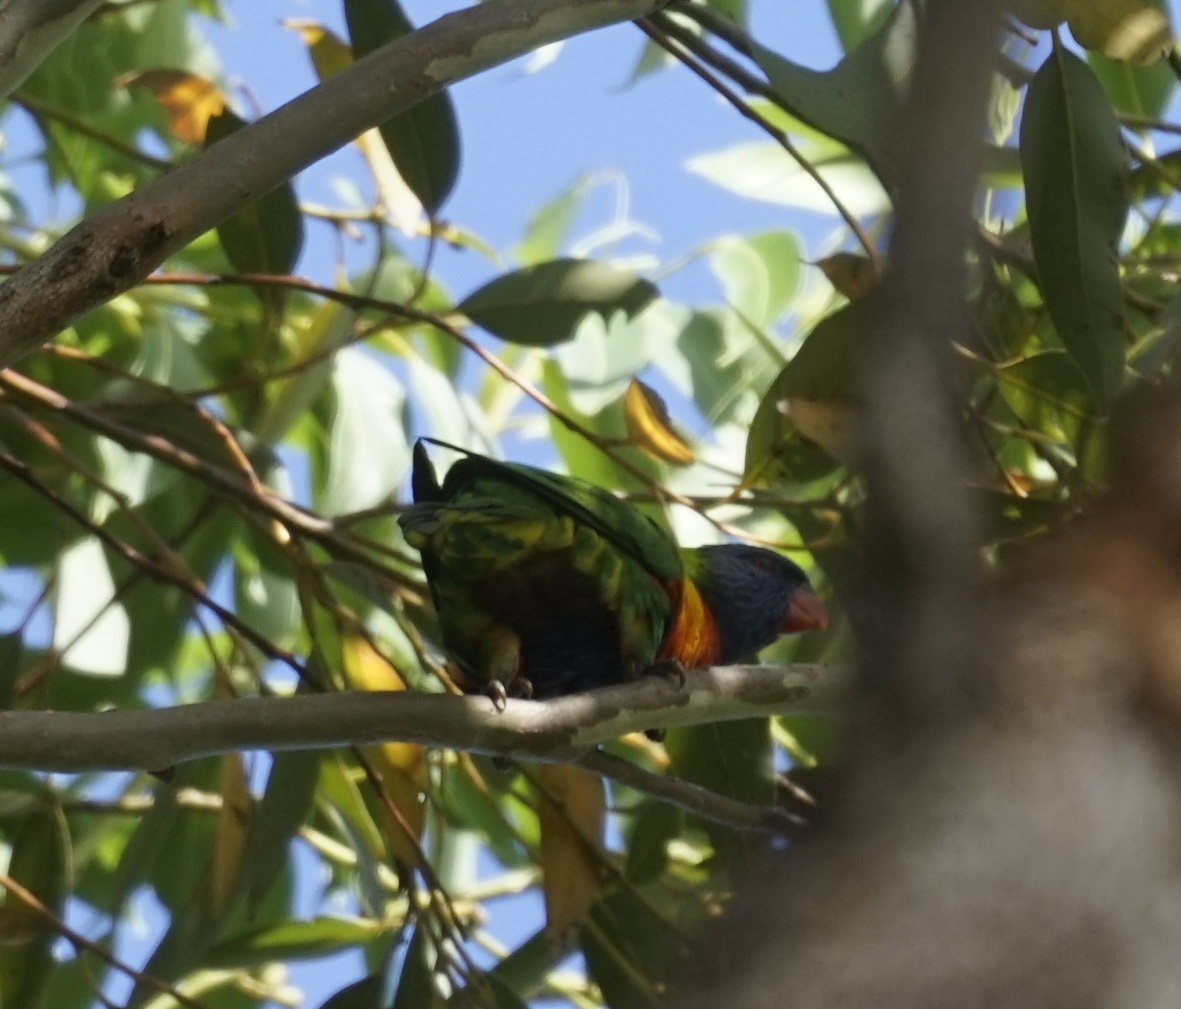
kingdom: Animalia
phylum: Chordata
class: Aves
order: Psittaciformes
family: Psittacidae
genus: Trichoglossus
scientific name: Trichoglossus haematodus
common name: Coconut lorikeet
